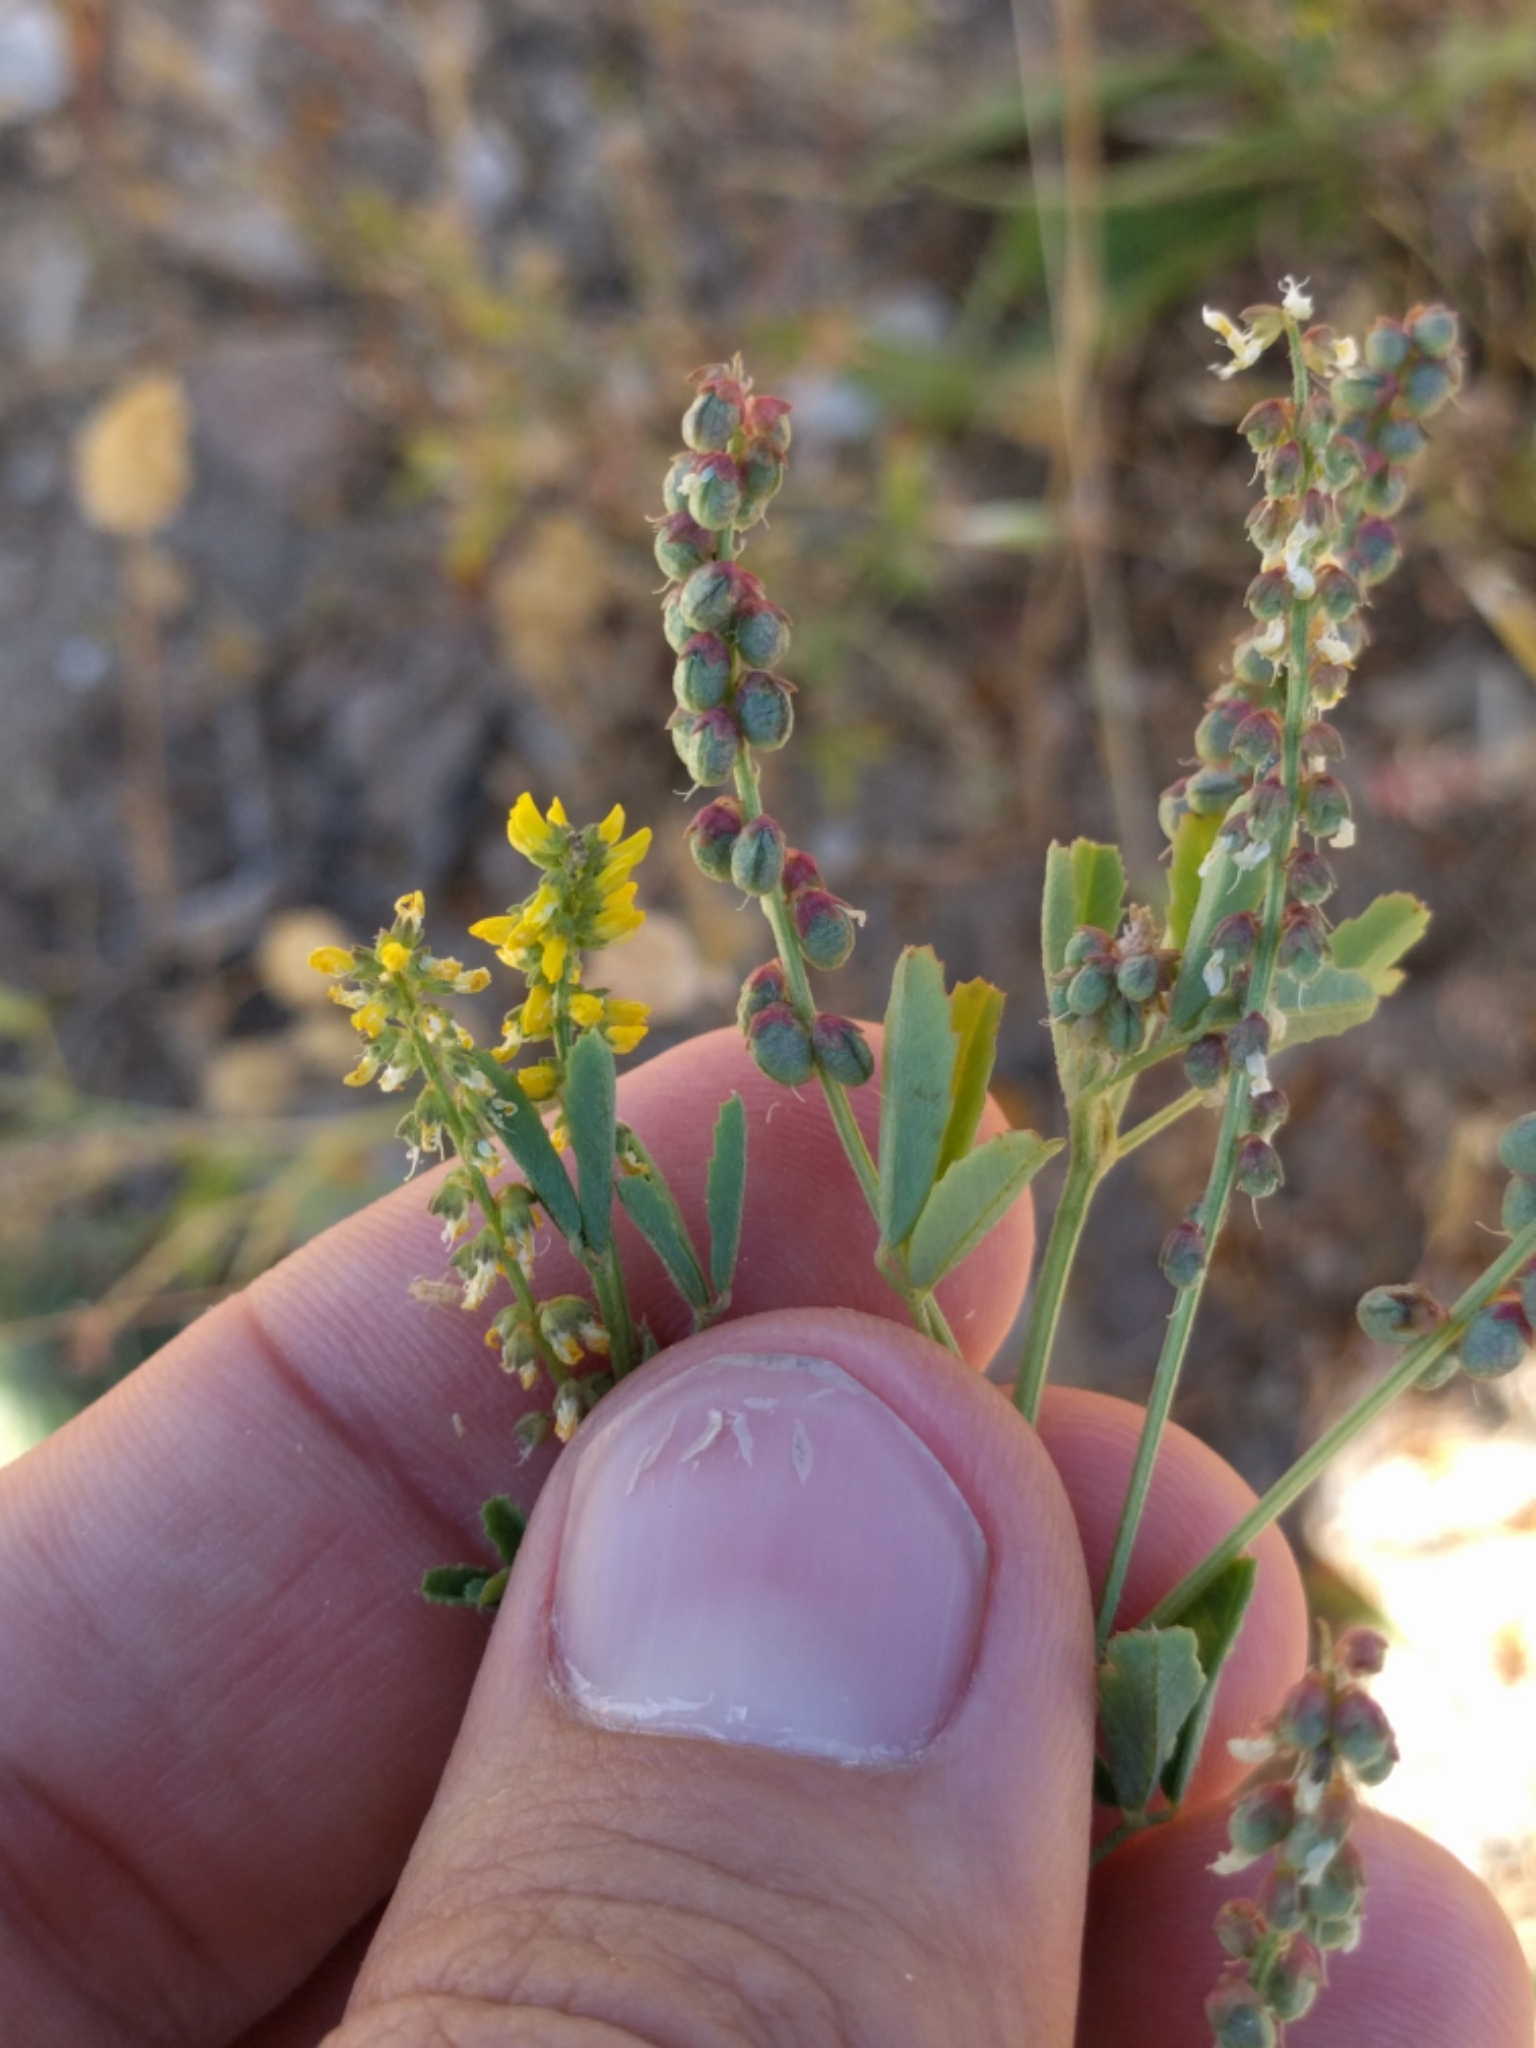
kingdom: Plantae
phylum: Tracheophyta
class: Magnoliopsida
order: Fabales
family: Fabaceae
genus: Melilotus
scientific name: Melilotus indicus
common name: Small melilot
